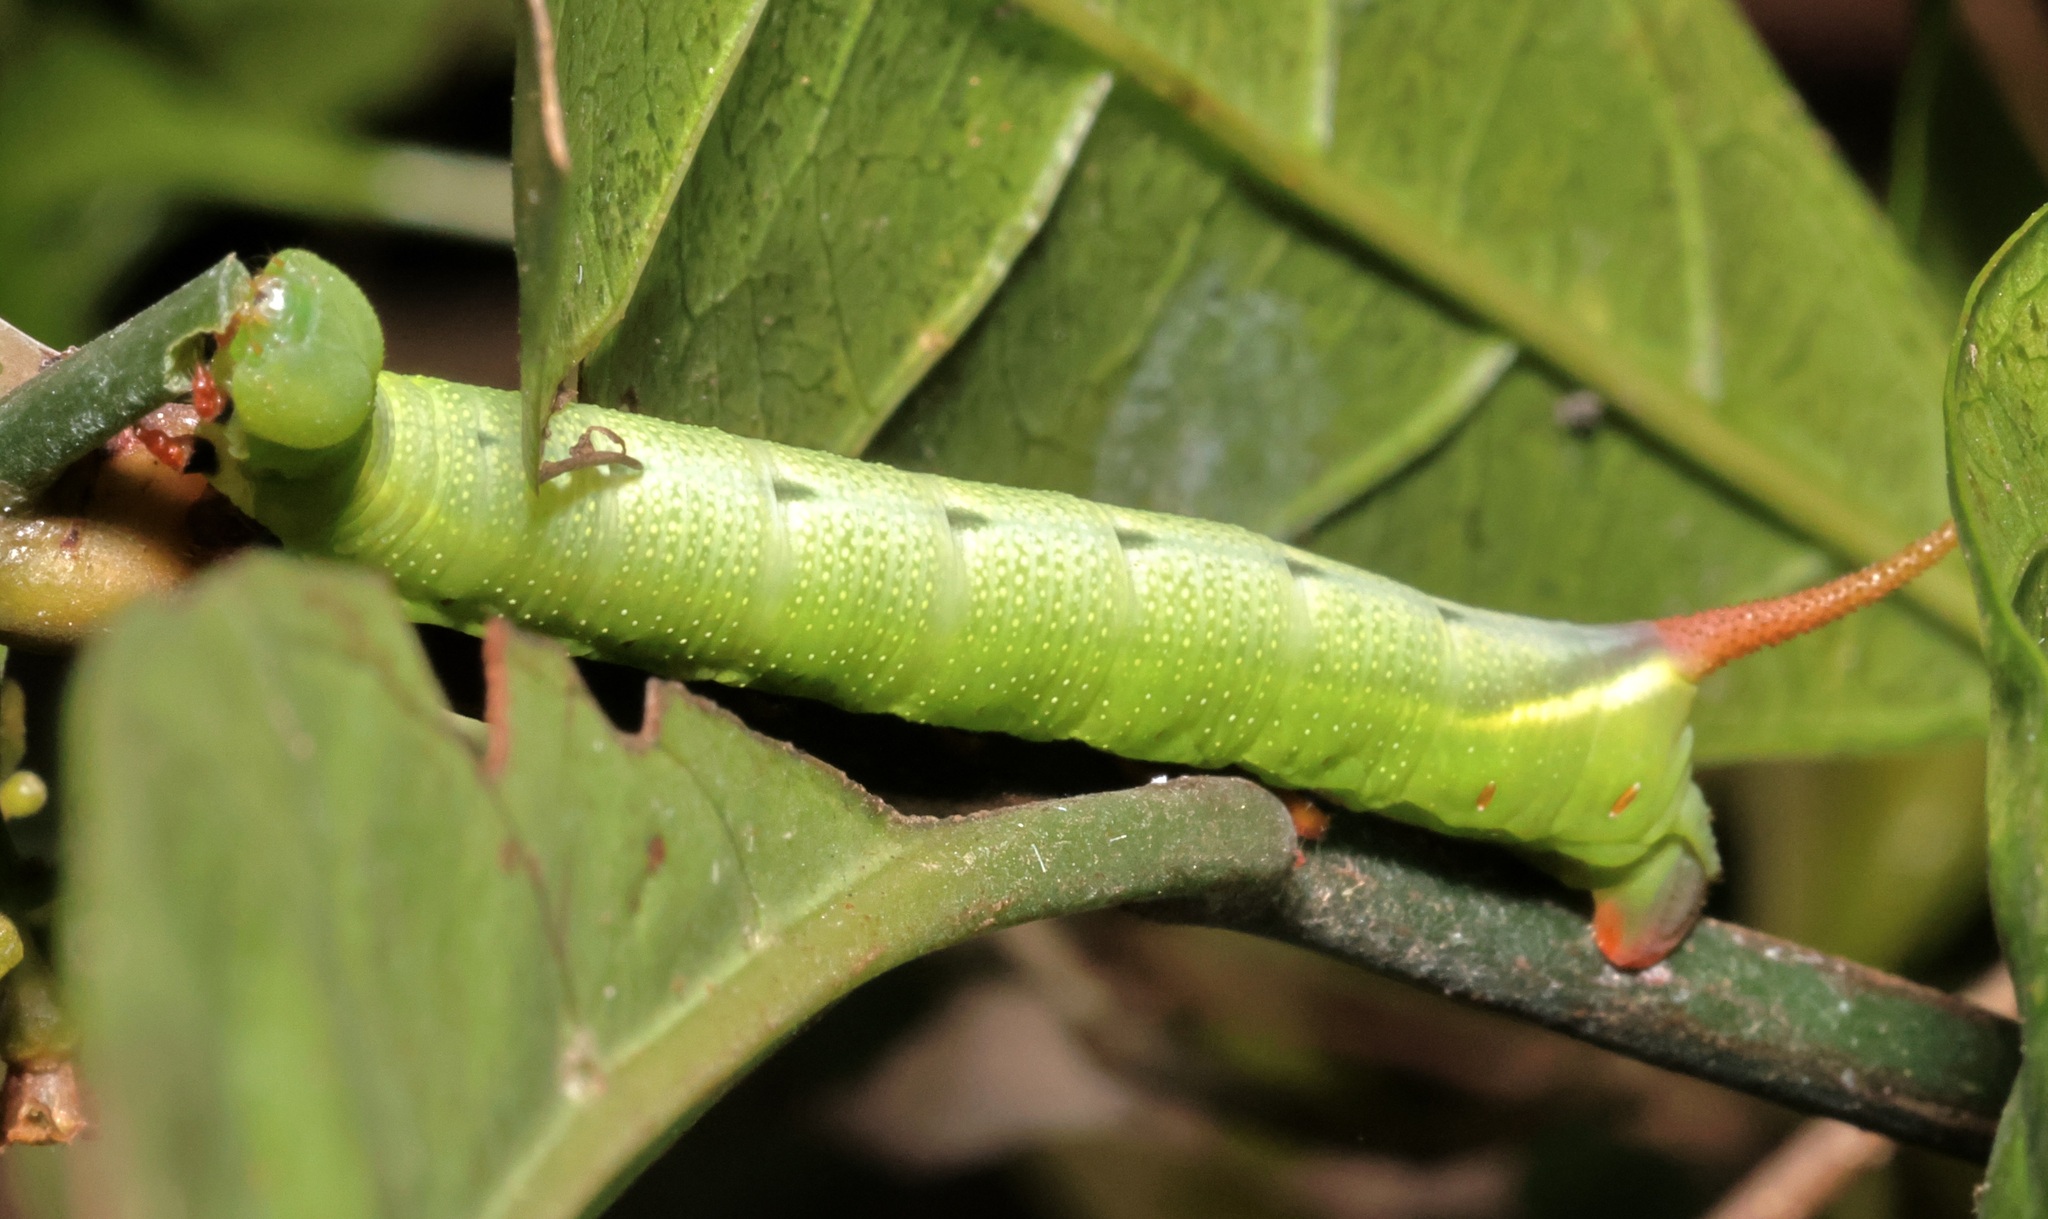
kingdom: Animalia
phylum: Arthropoda
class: Insecta
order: Lepidoptera
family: Sphingidae
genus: Macroglossum
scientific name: Macroglossum divergens
